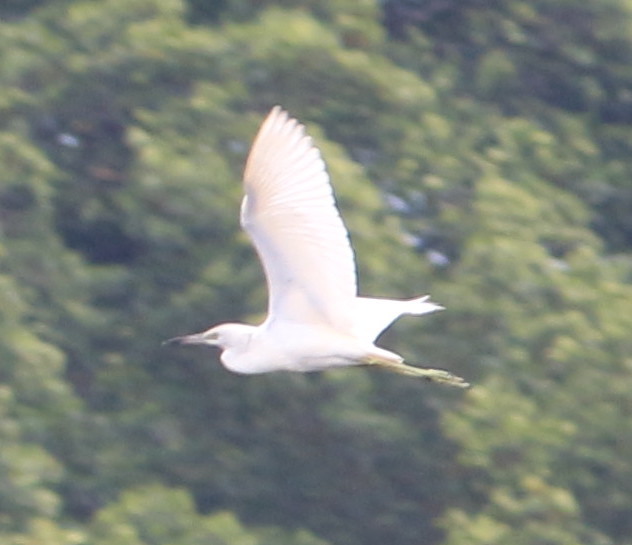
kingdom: Animalia
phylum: Chordata
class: Aves
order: Pelecaniformes
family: Ardeidae
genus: Egretta
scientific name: Egretta caerulea
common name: Little blue heron
